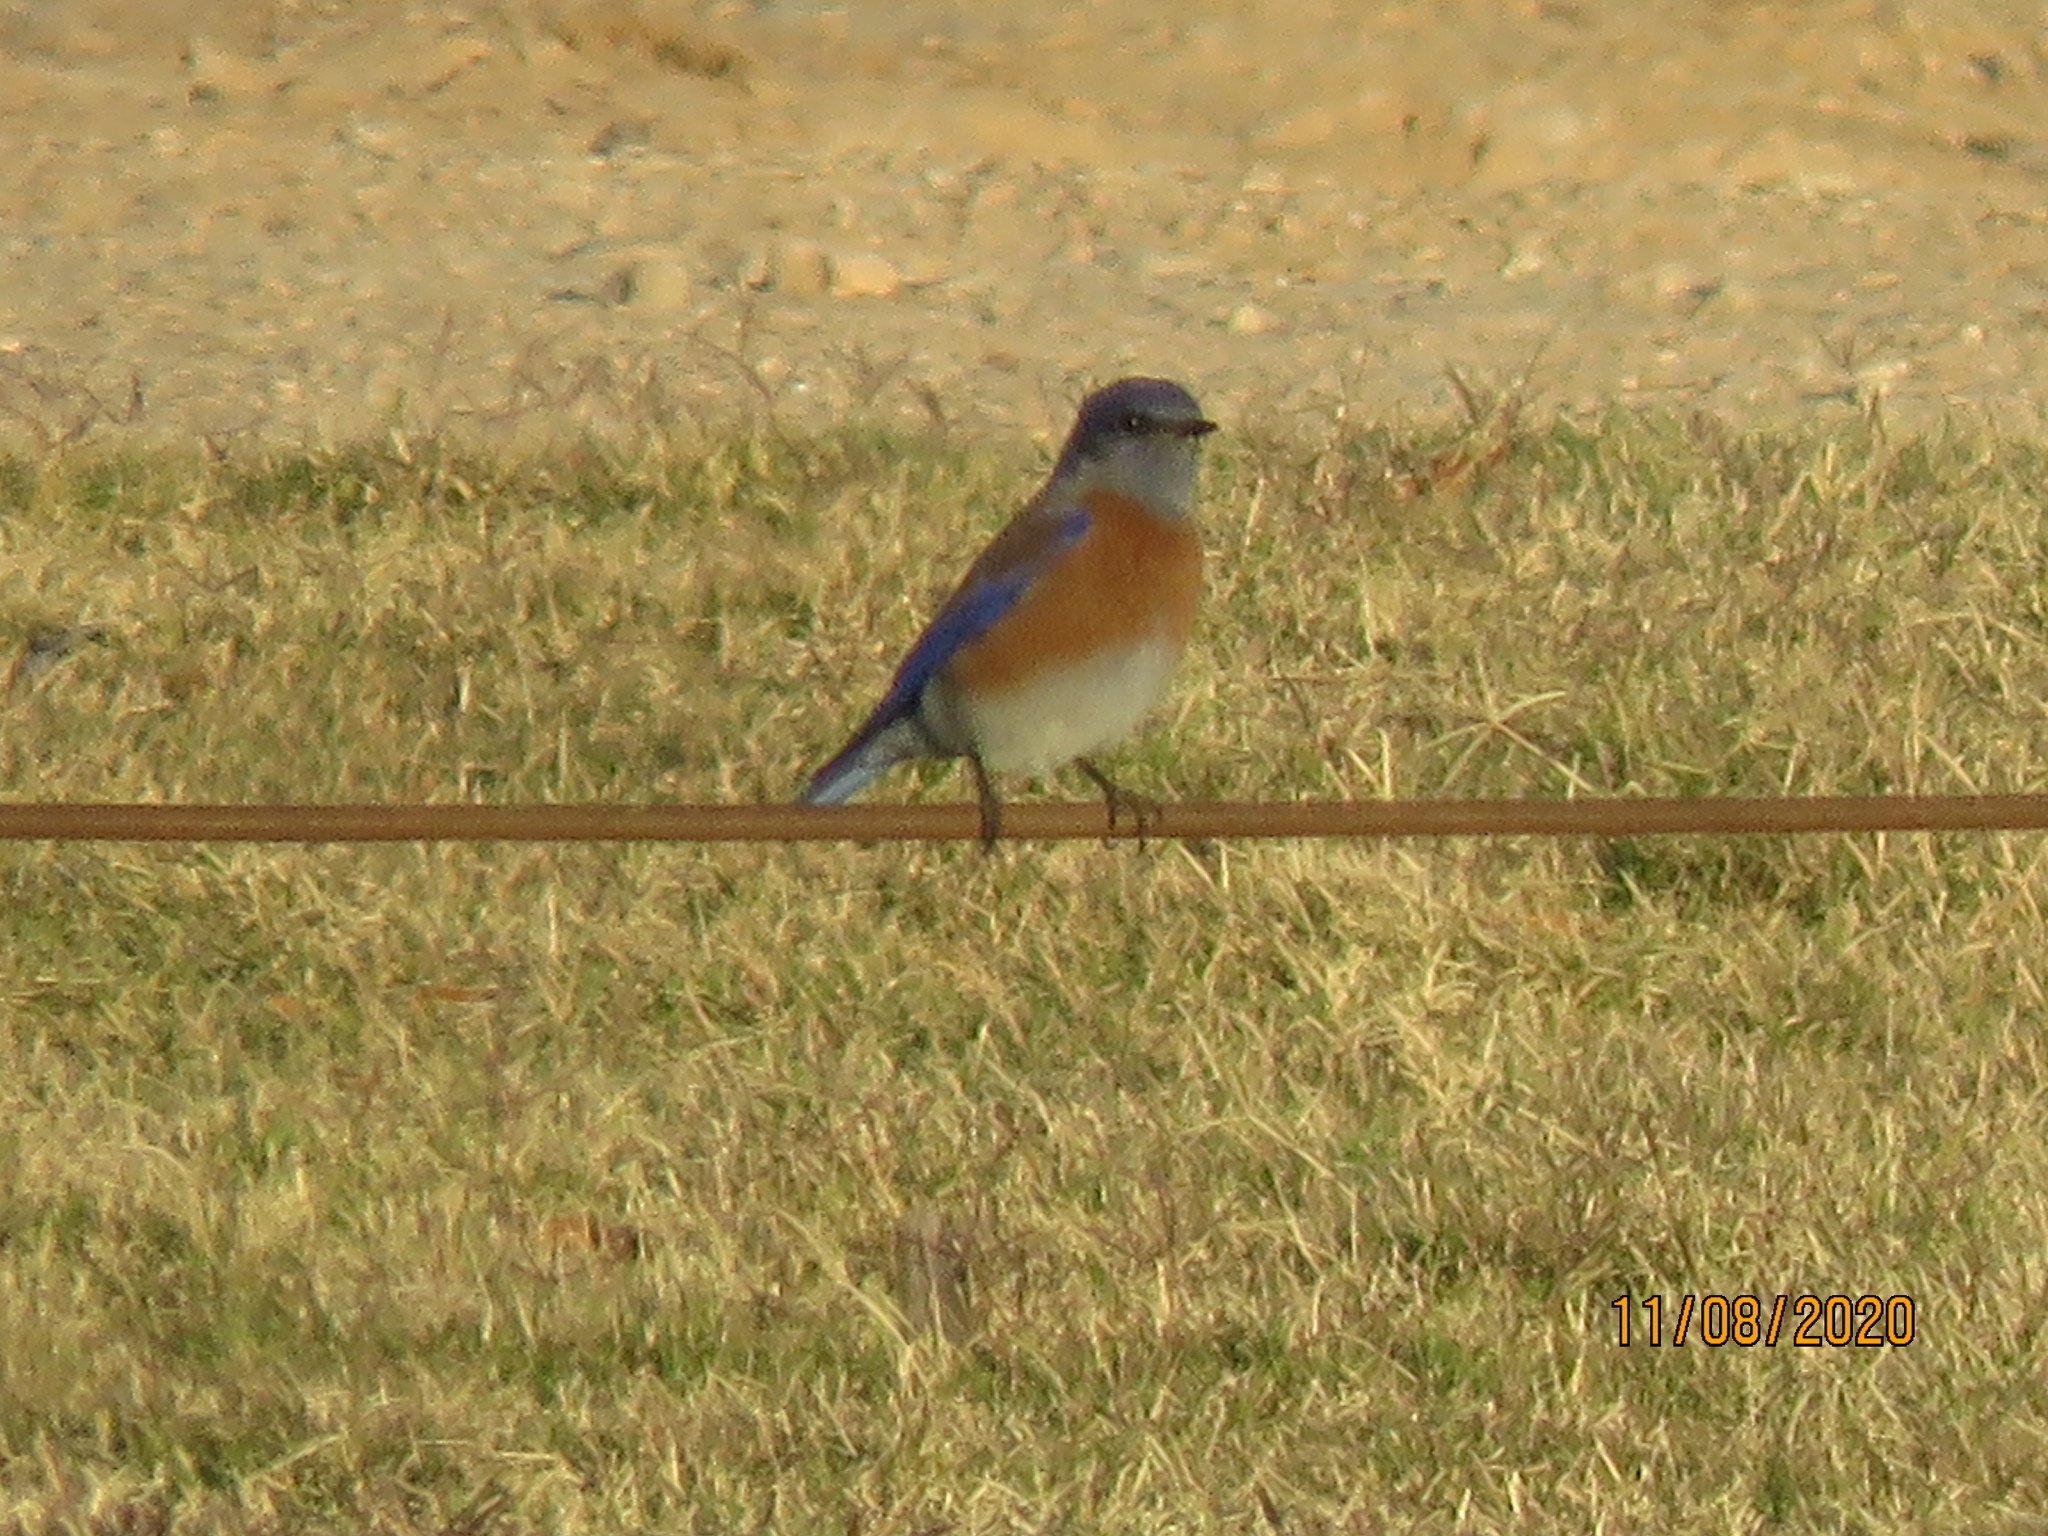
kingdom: Animalia
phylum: Chordata
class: Aves
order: Passeriformes
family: Turdidae
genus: Sialia
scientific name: Sialia mexicana
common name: Western bluebird
